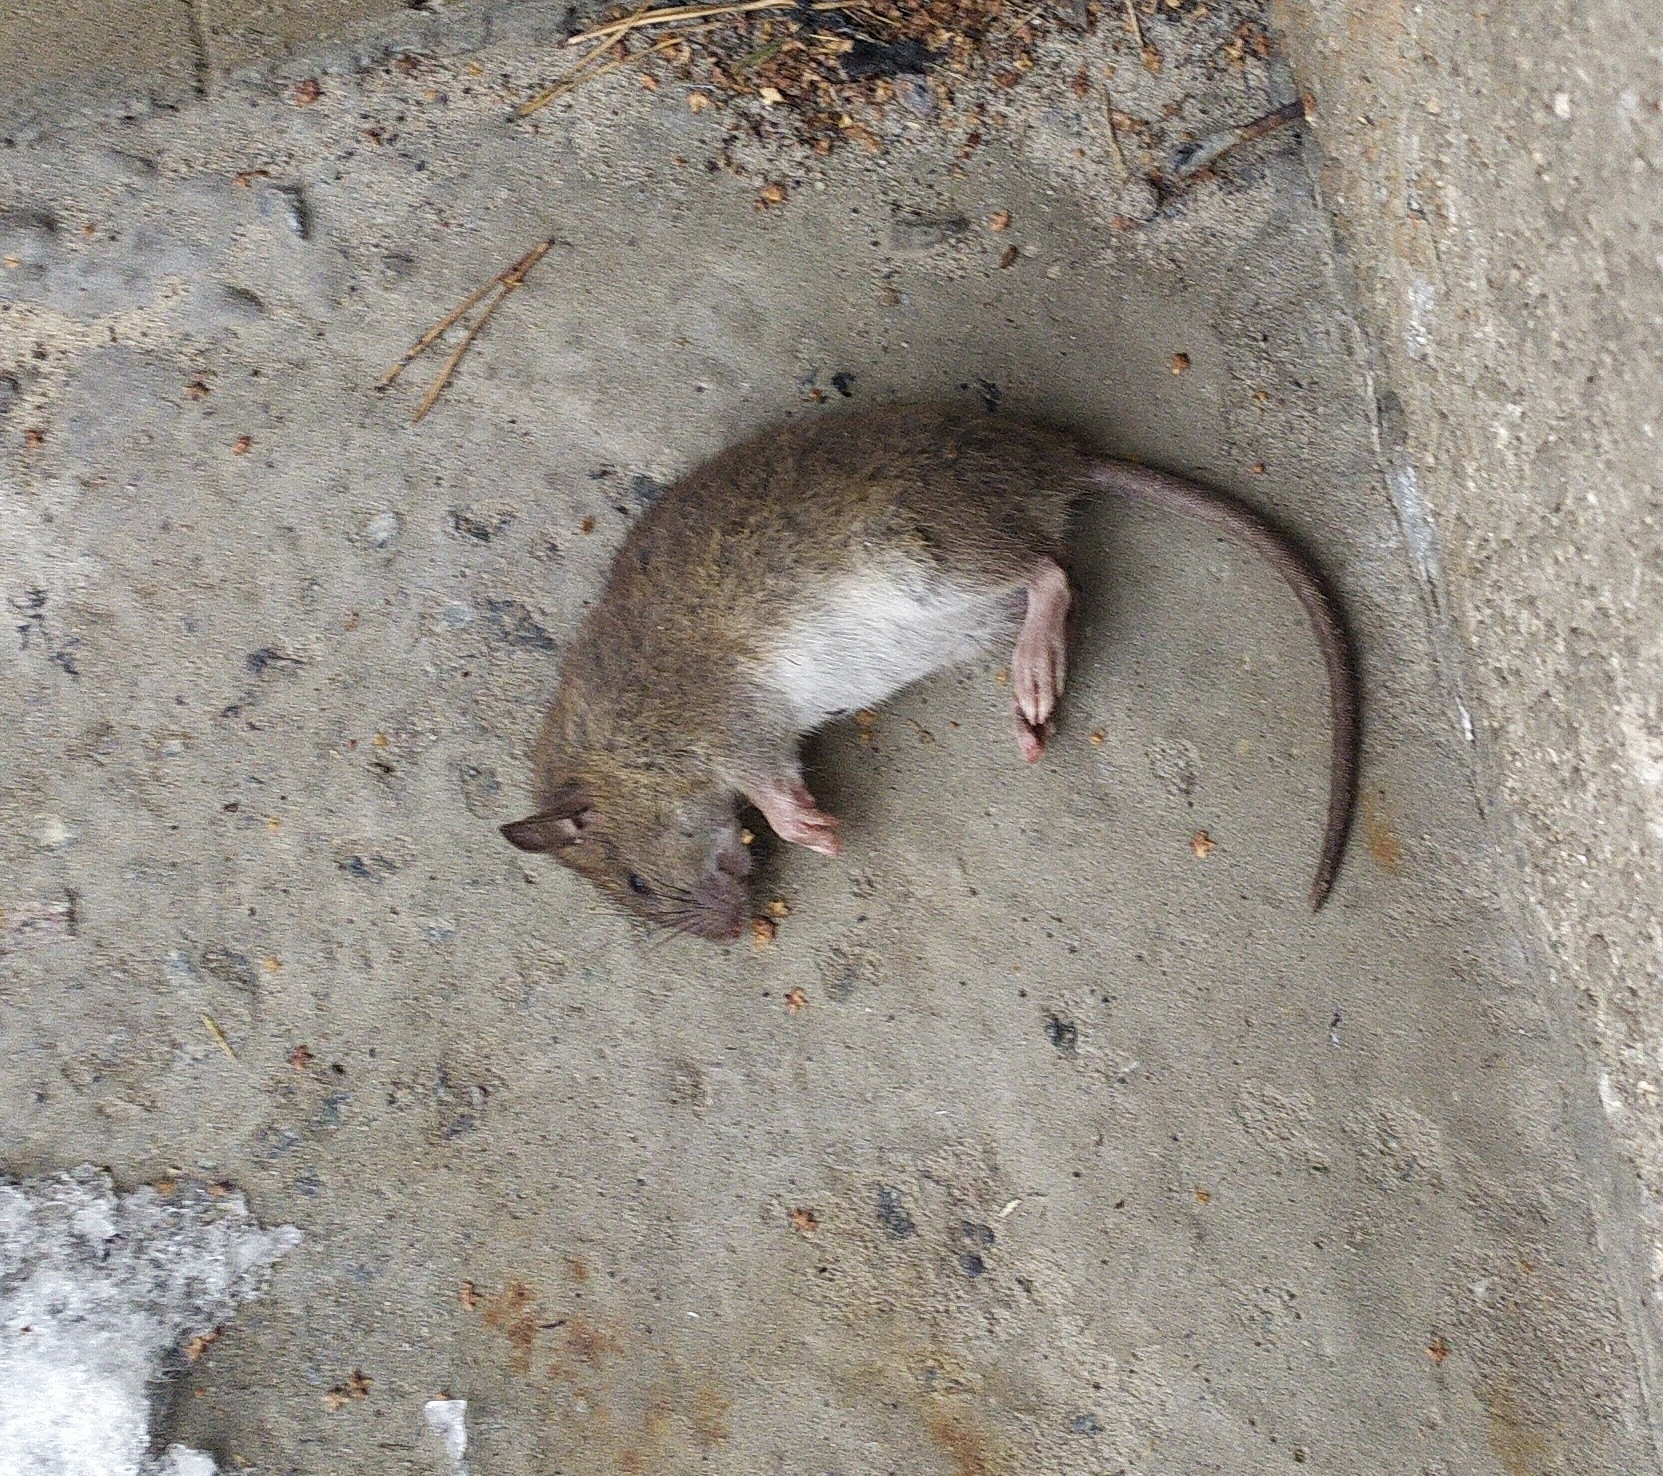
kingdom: Animalia
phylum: Chordata
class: Mammalia
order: Rodentia
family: Muridae
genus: Rattus
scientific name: Rattus norvegicus
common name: Brown rat
